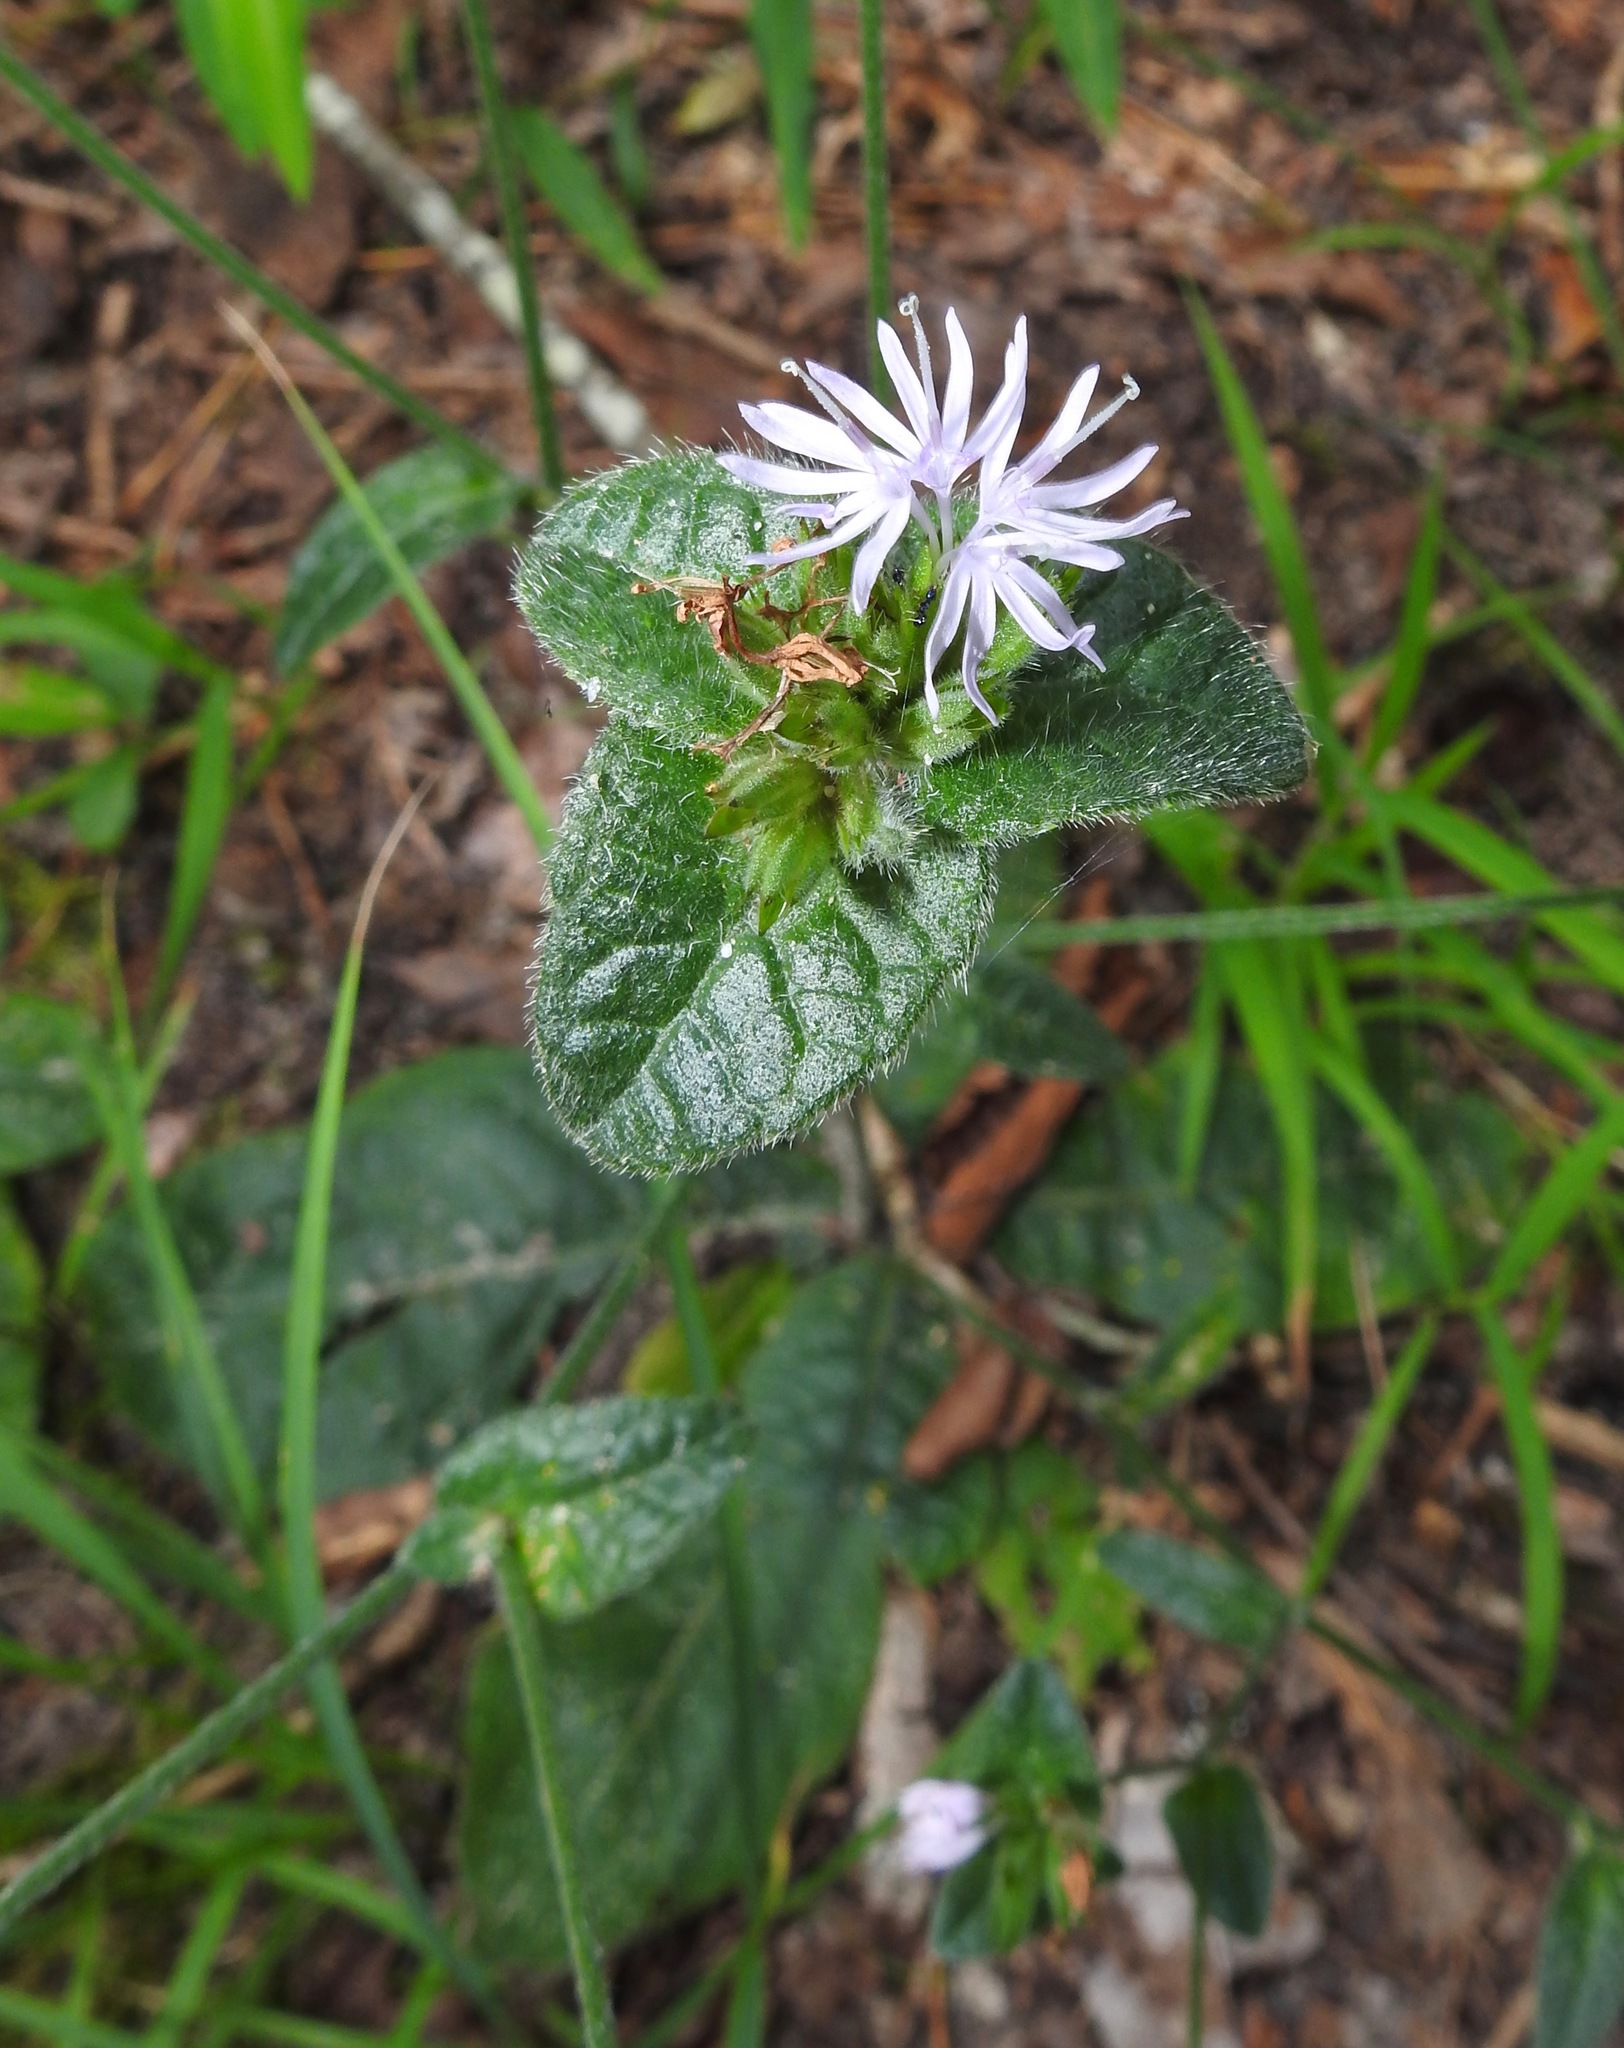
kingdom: Plantae
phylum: Tracheophyta
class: Magnoliopsida
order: Asterales
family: Asteraceae
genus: Elephantopus
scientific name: Elephantopus tomentosus
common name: Tobacco-weed
